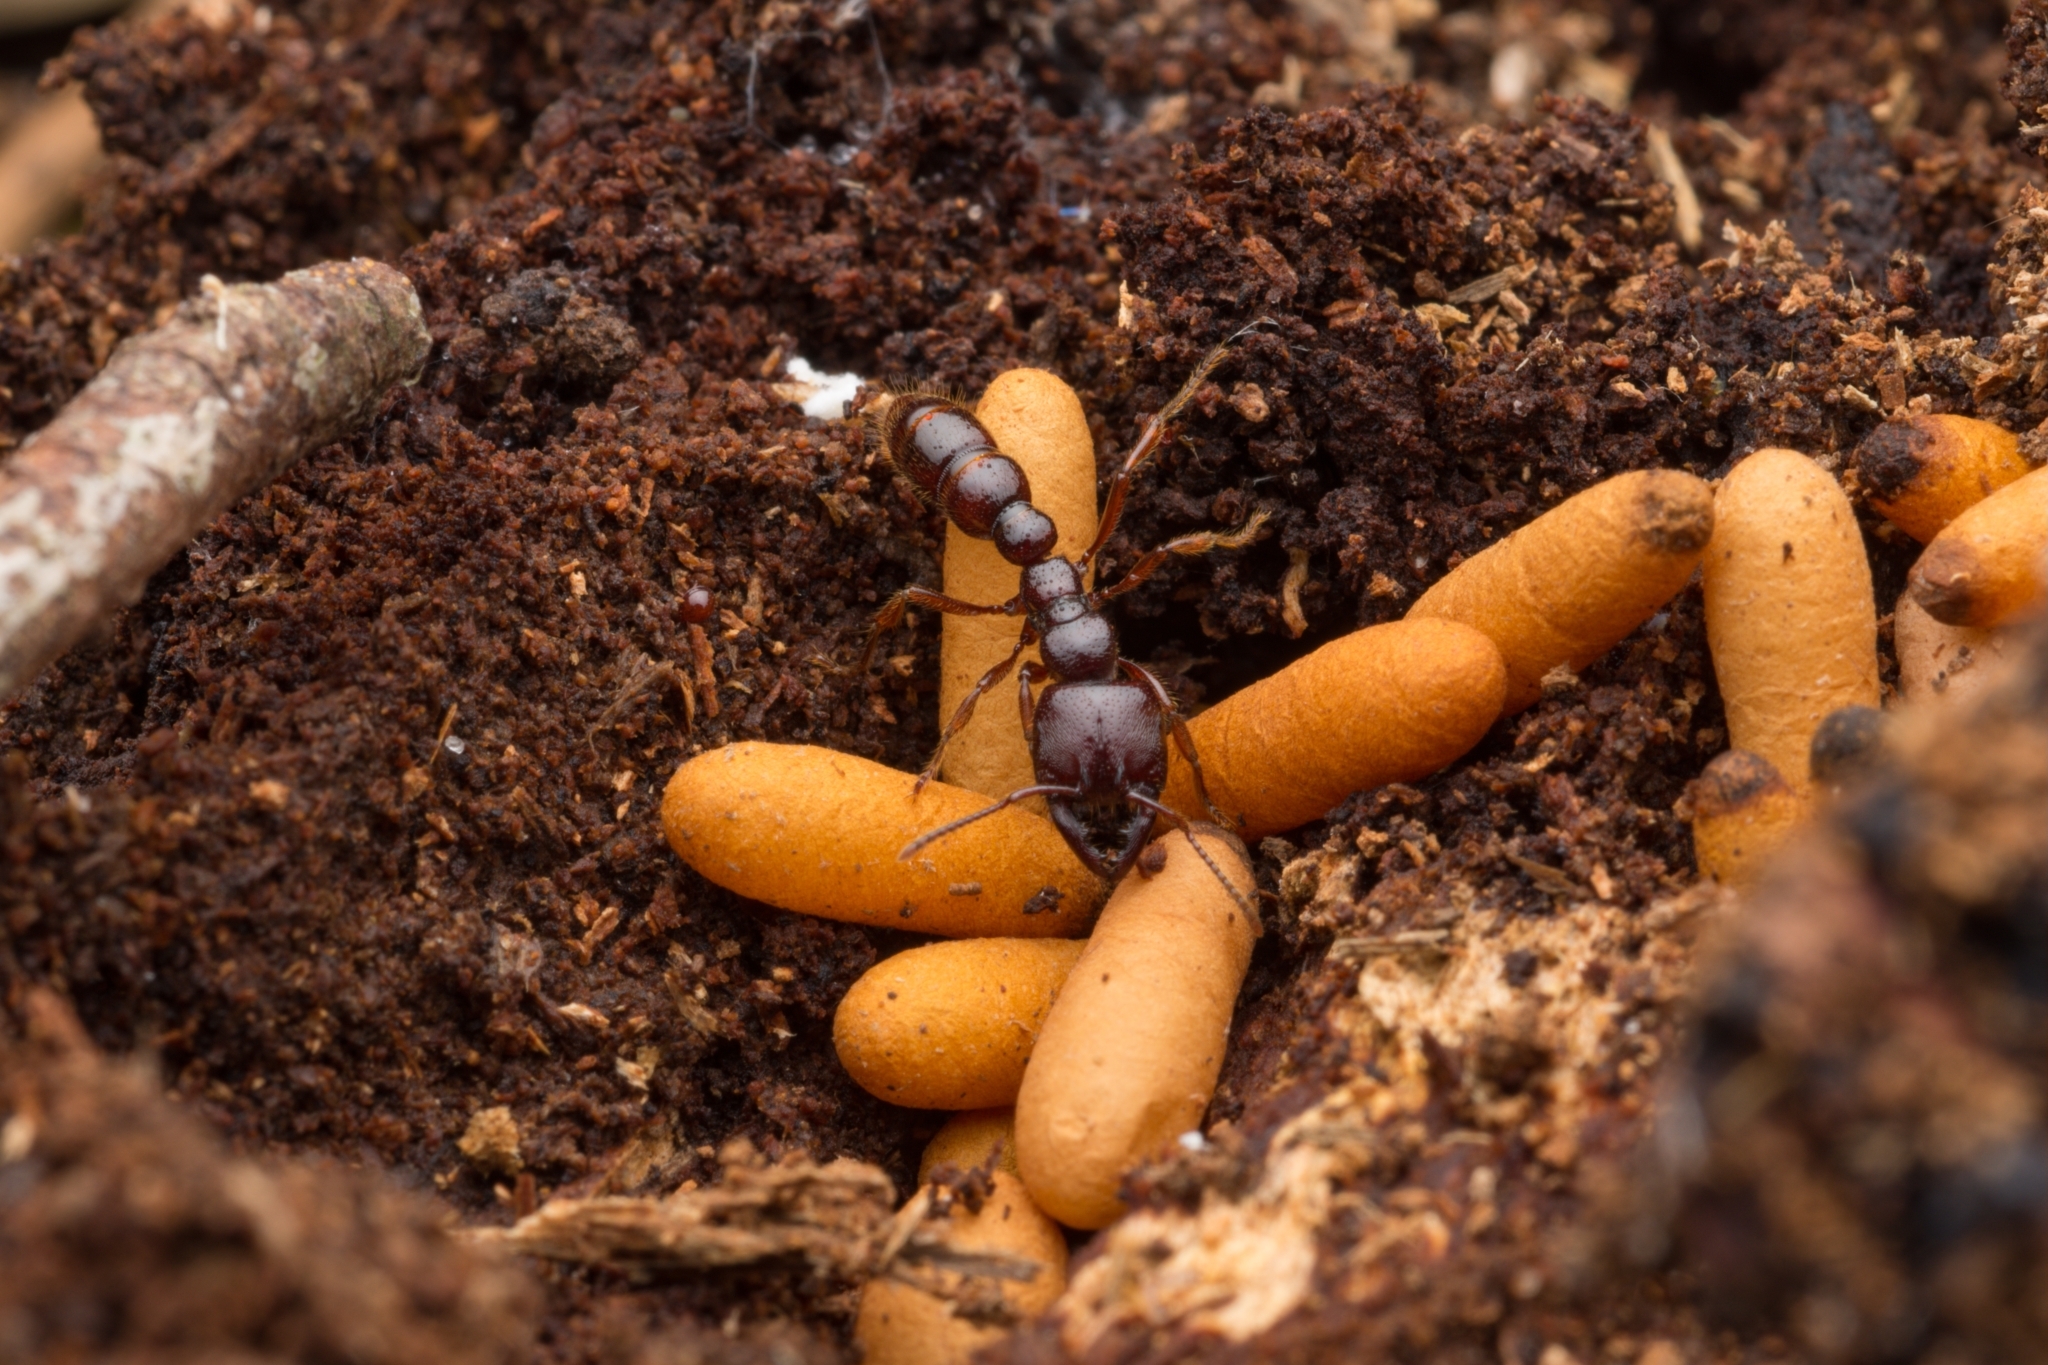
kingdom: Animalia
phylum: Arthropoda
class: Insecta
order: Hymenoptera
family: Formicidae
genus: Amblyopone
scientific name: Amblyopone australis
